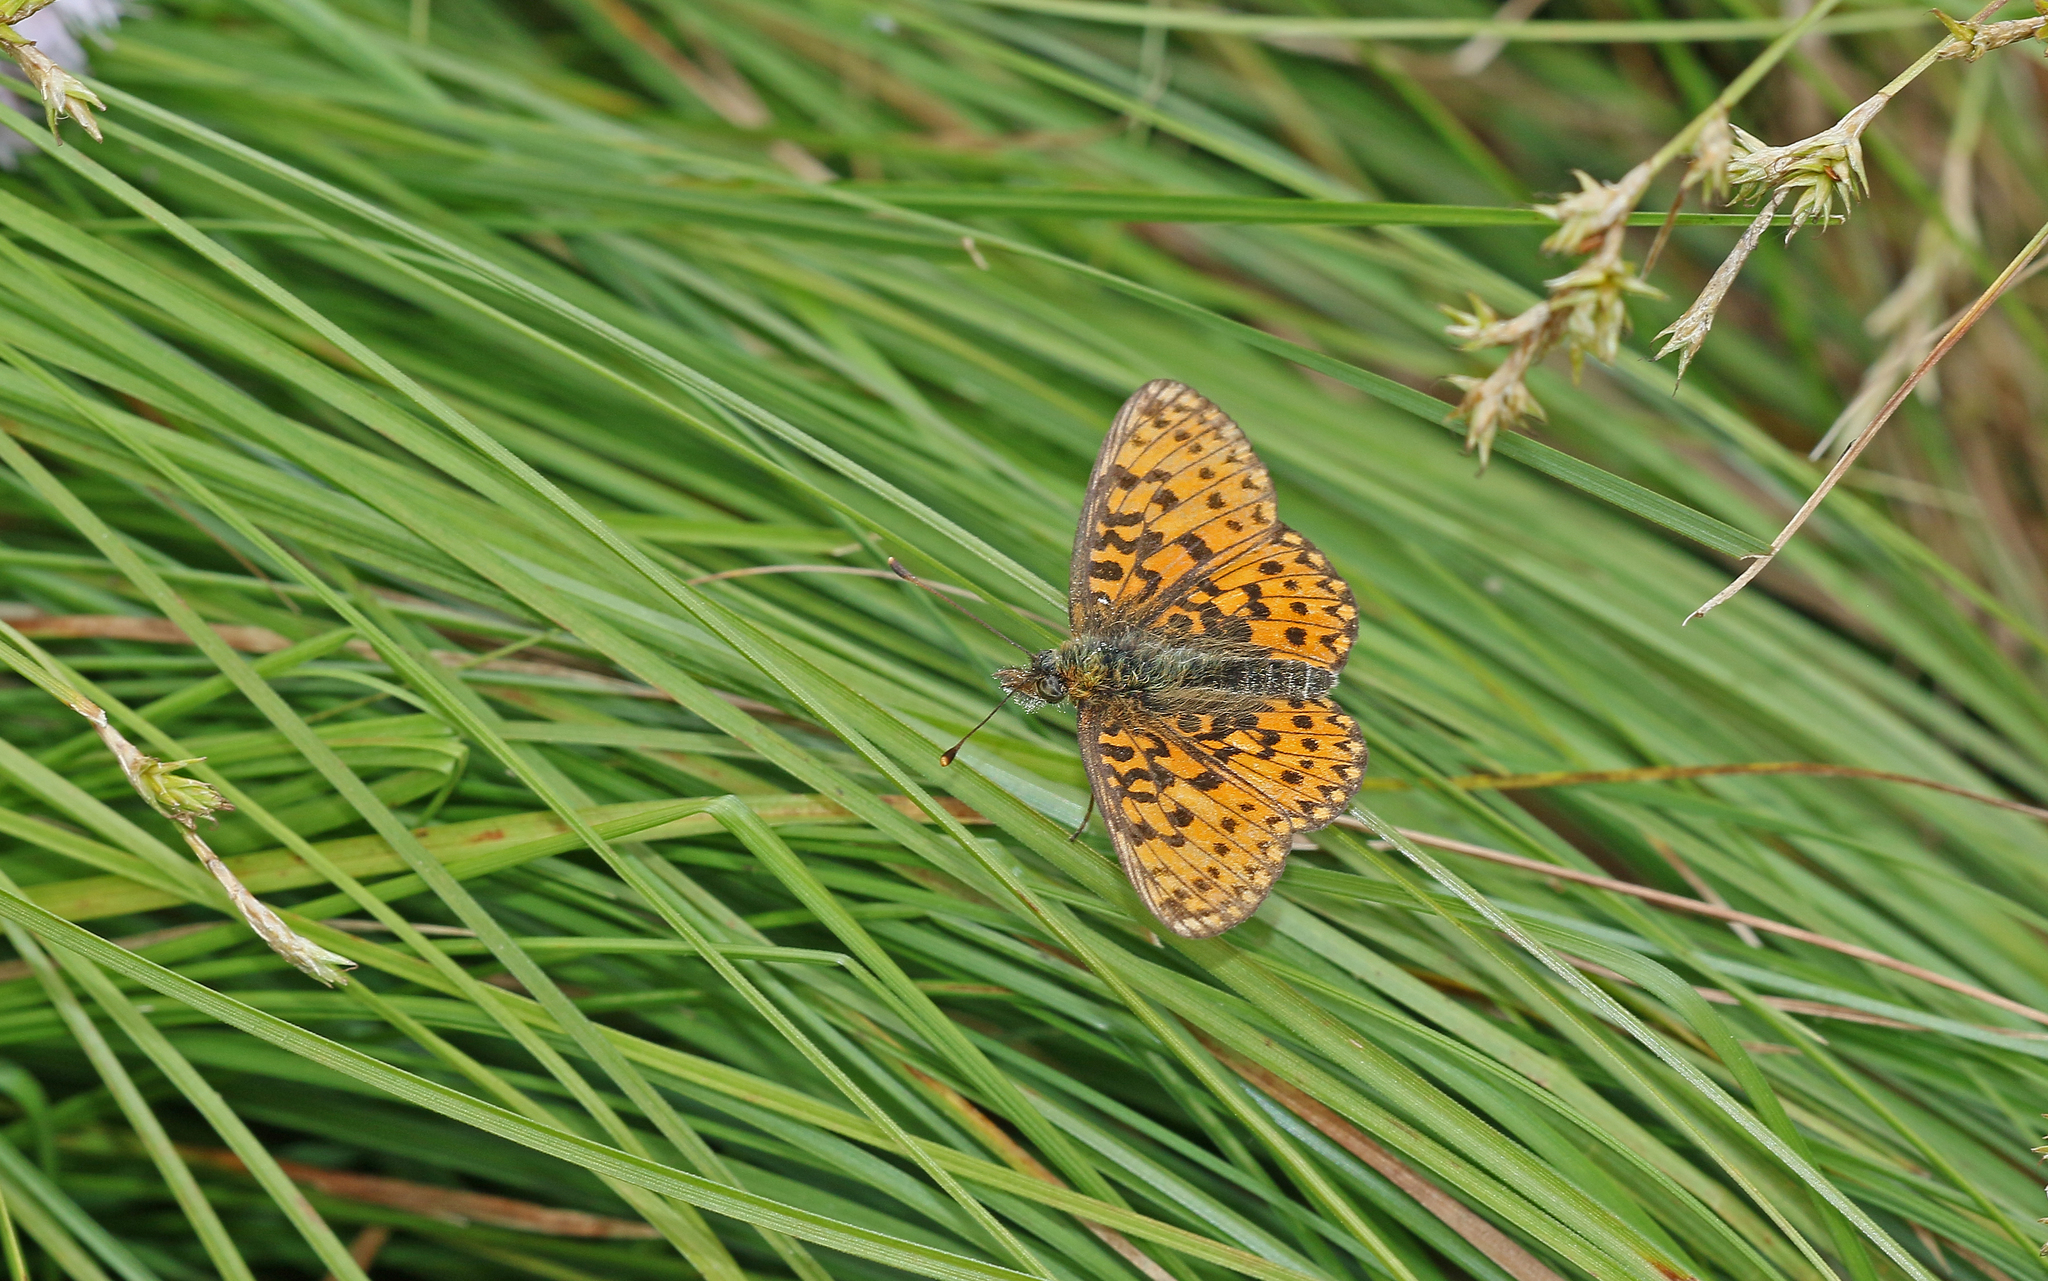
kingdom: Animalia
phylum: Arthropoda
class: Insecta
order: Lepidoptera
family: Nymphalidae
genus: Boloria
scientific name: Boloria selene
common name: Small pearl-bordered fritillary
